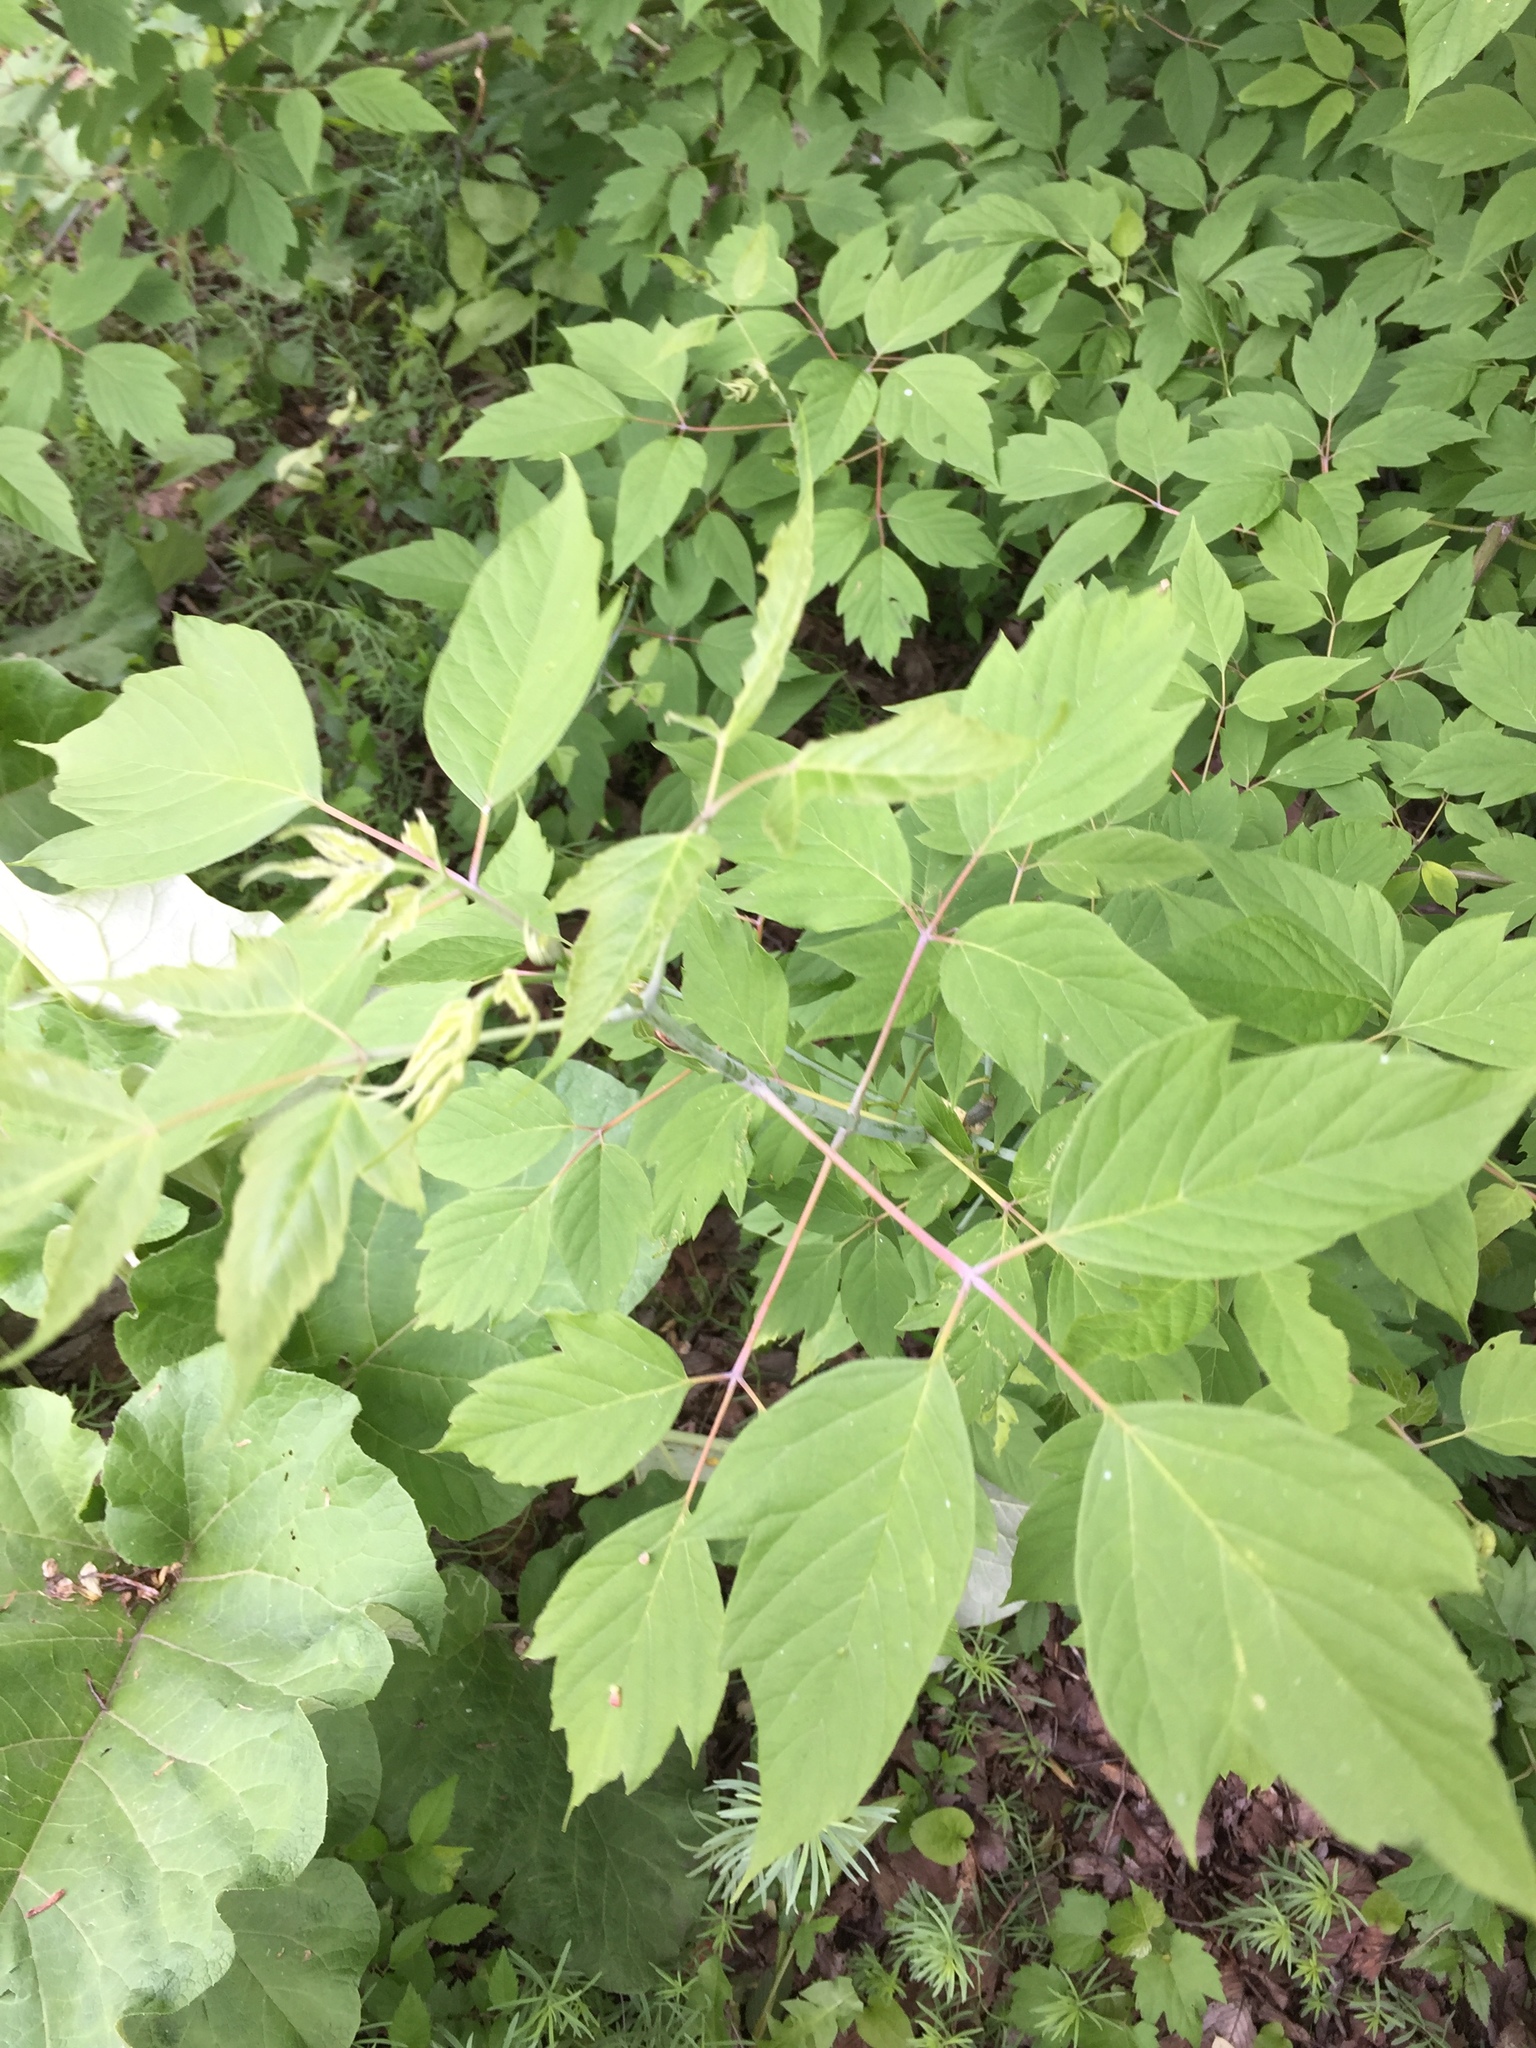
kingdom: Plantae
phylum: Tracheophyta
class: Magnoliopsida
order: Sapindales
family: Sapindaceae
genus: Acer
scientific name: Acer negundo
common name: Ashleaf maple
